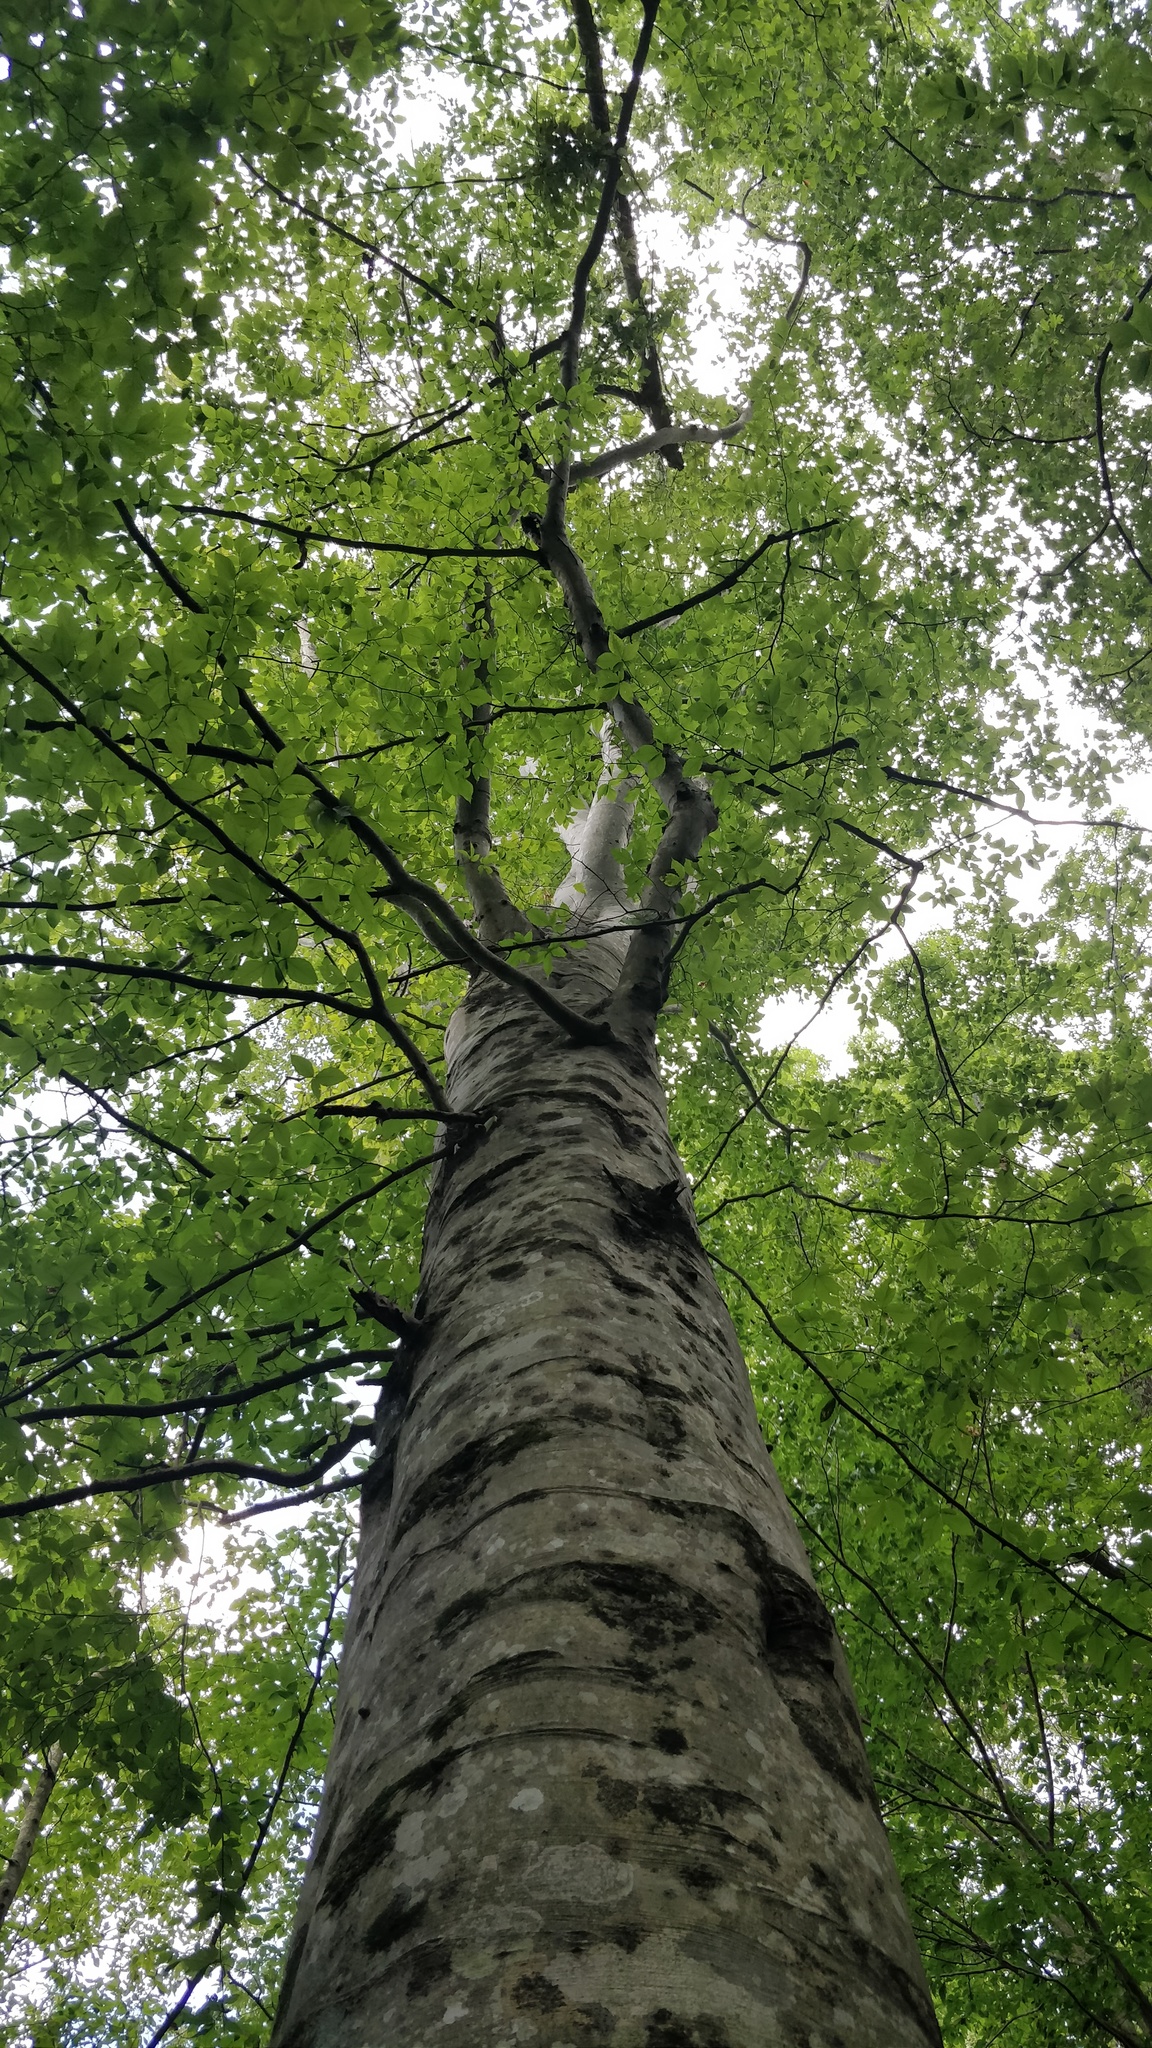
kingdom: Plantae
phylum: Tracheophyta
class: Magnoliopsida
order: Fagales
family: Fagaceae
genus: Fagus
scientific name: Fagus grandifolia
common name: American beech
